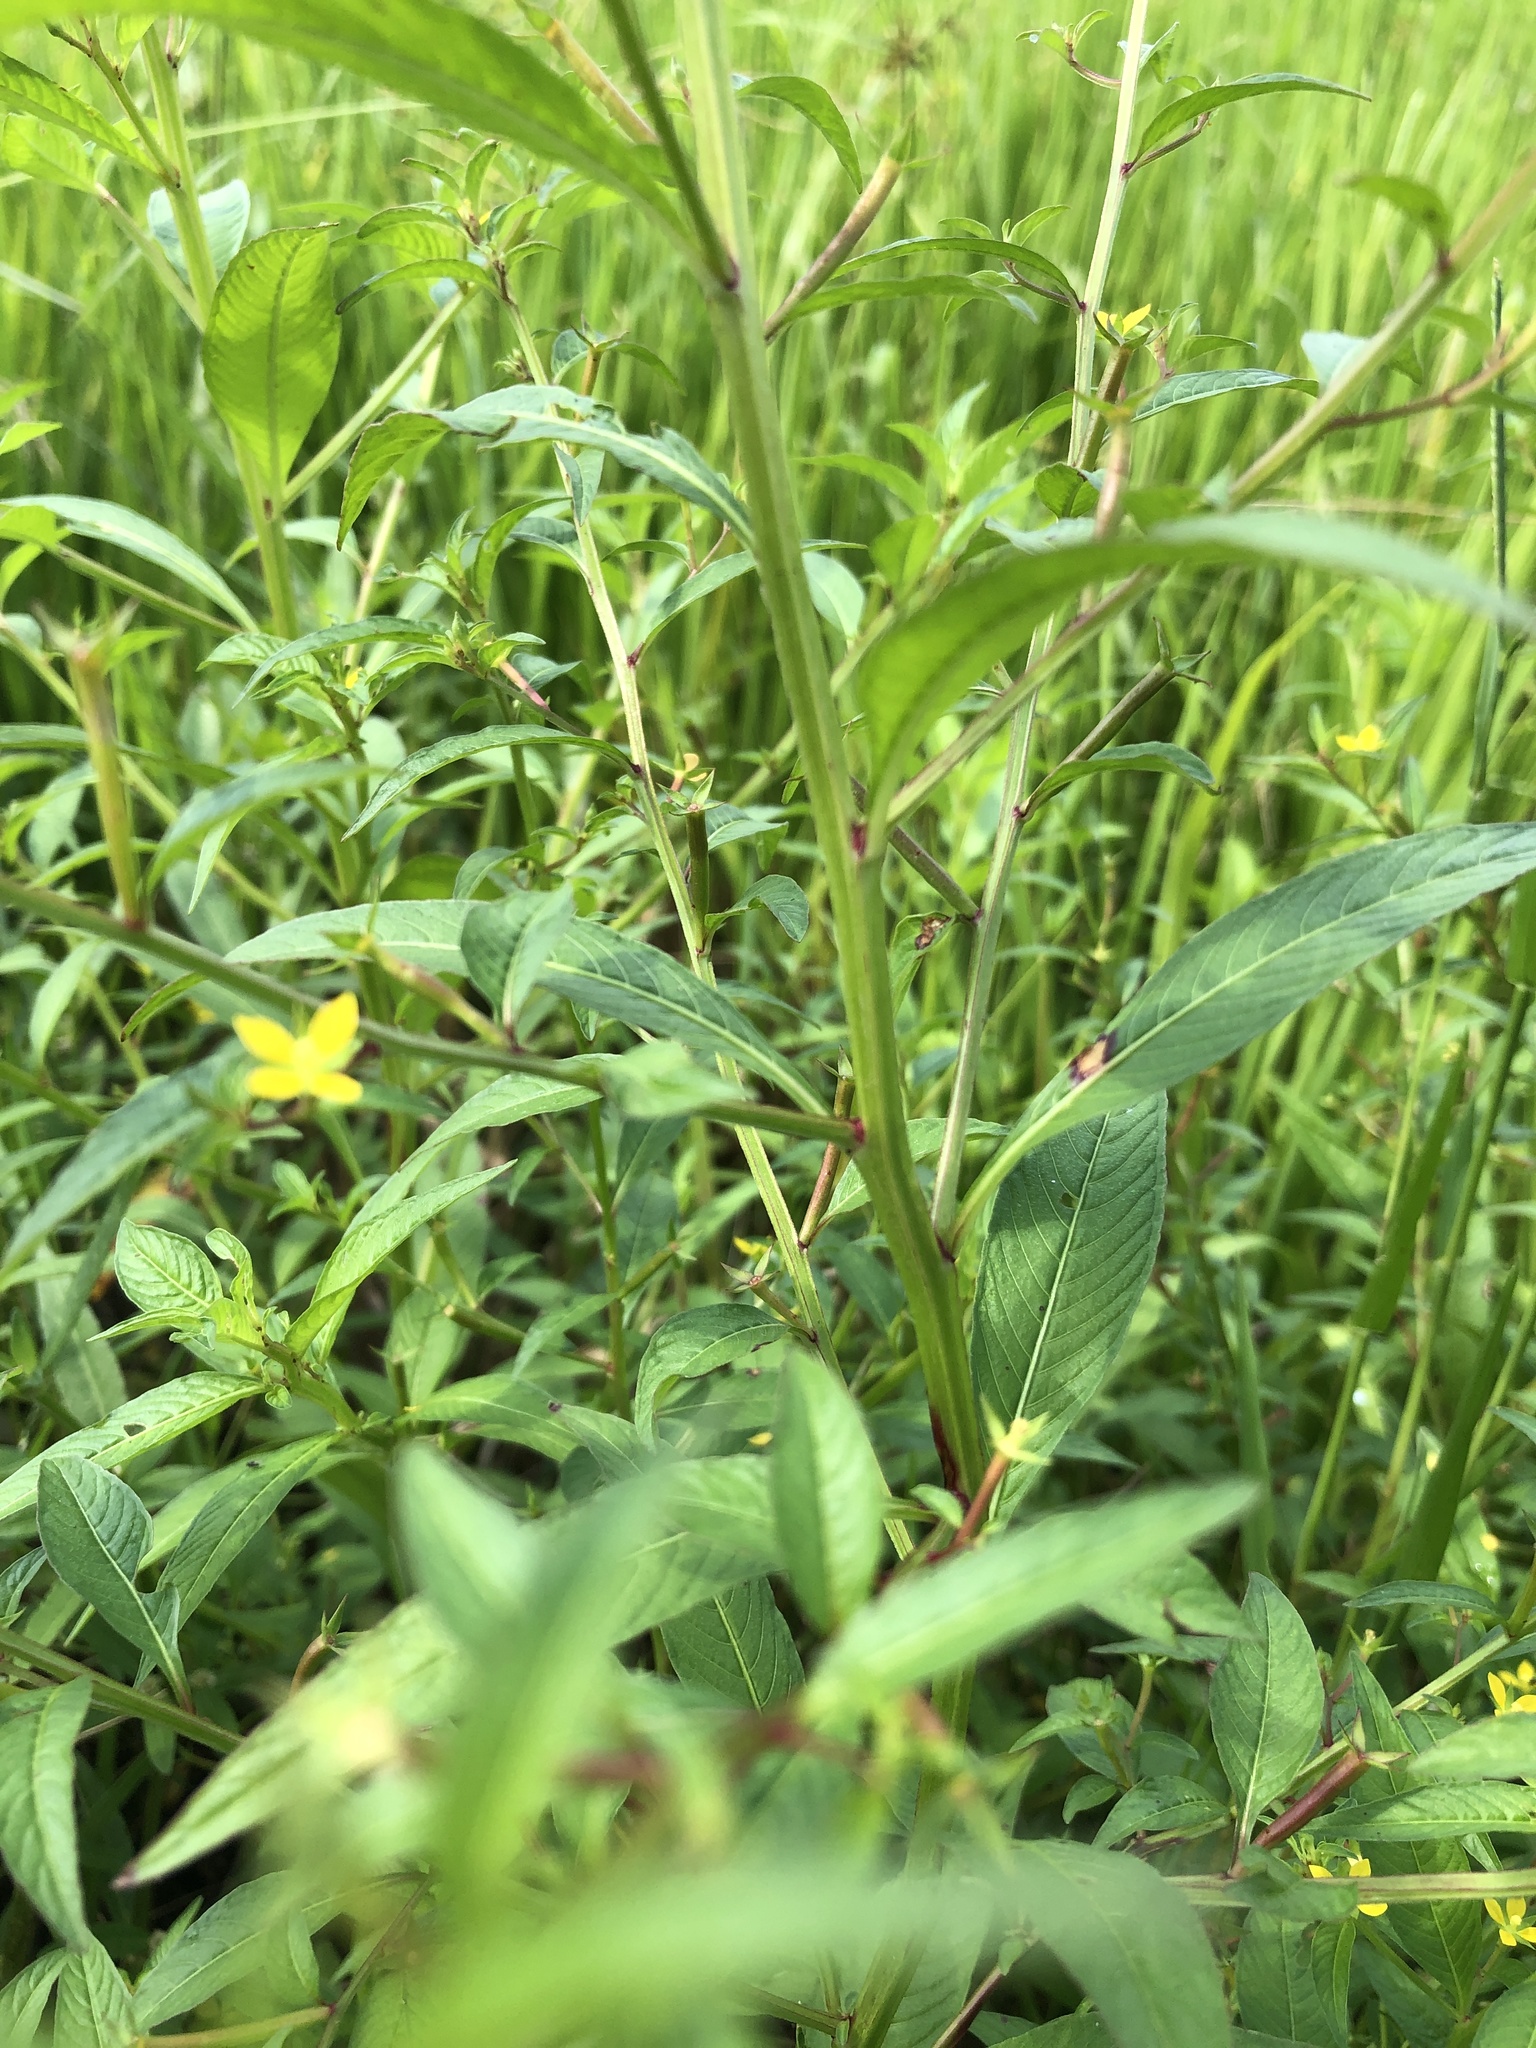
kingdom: Plantae
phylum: Tracheophyta
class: Magnoliopsida
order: Myrtales
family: Onagraceae
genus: Ludwigia
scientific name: Ludwigia decurrens
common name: Winged water-primrose
